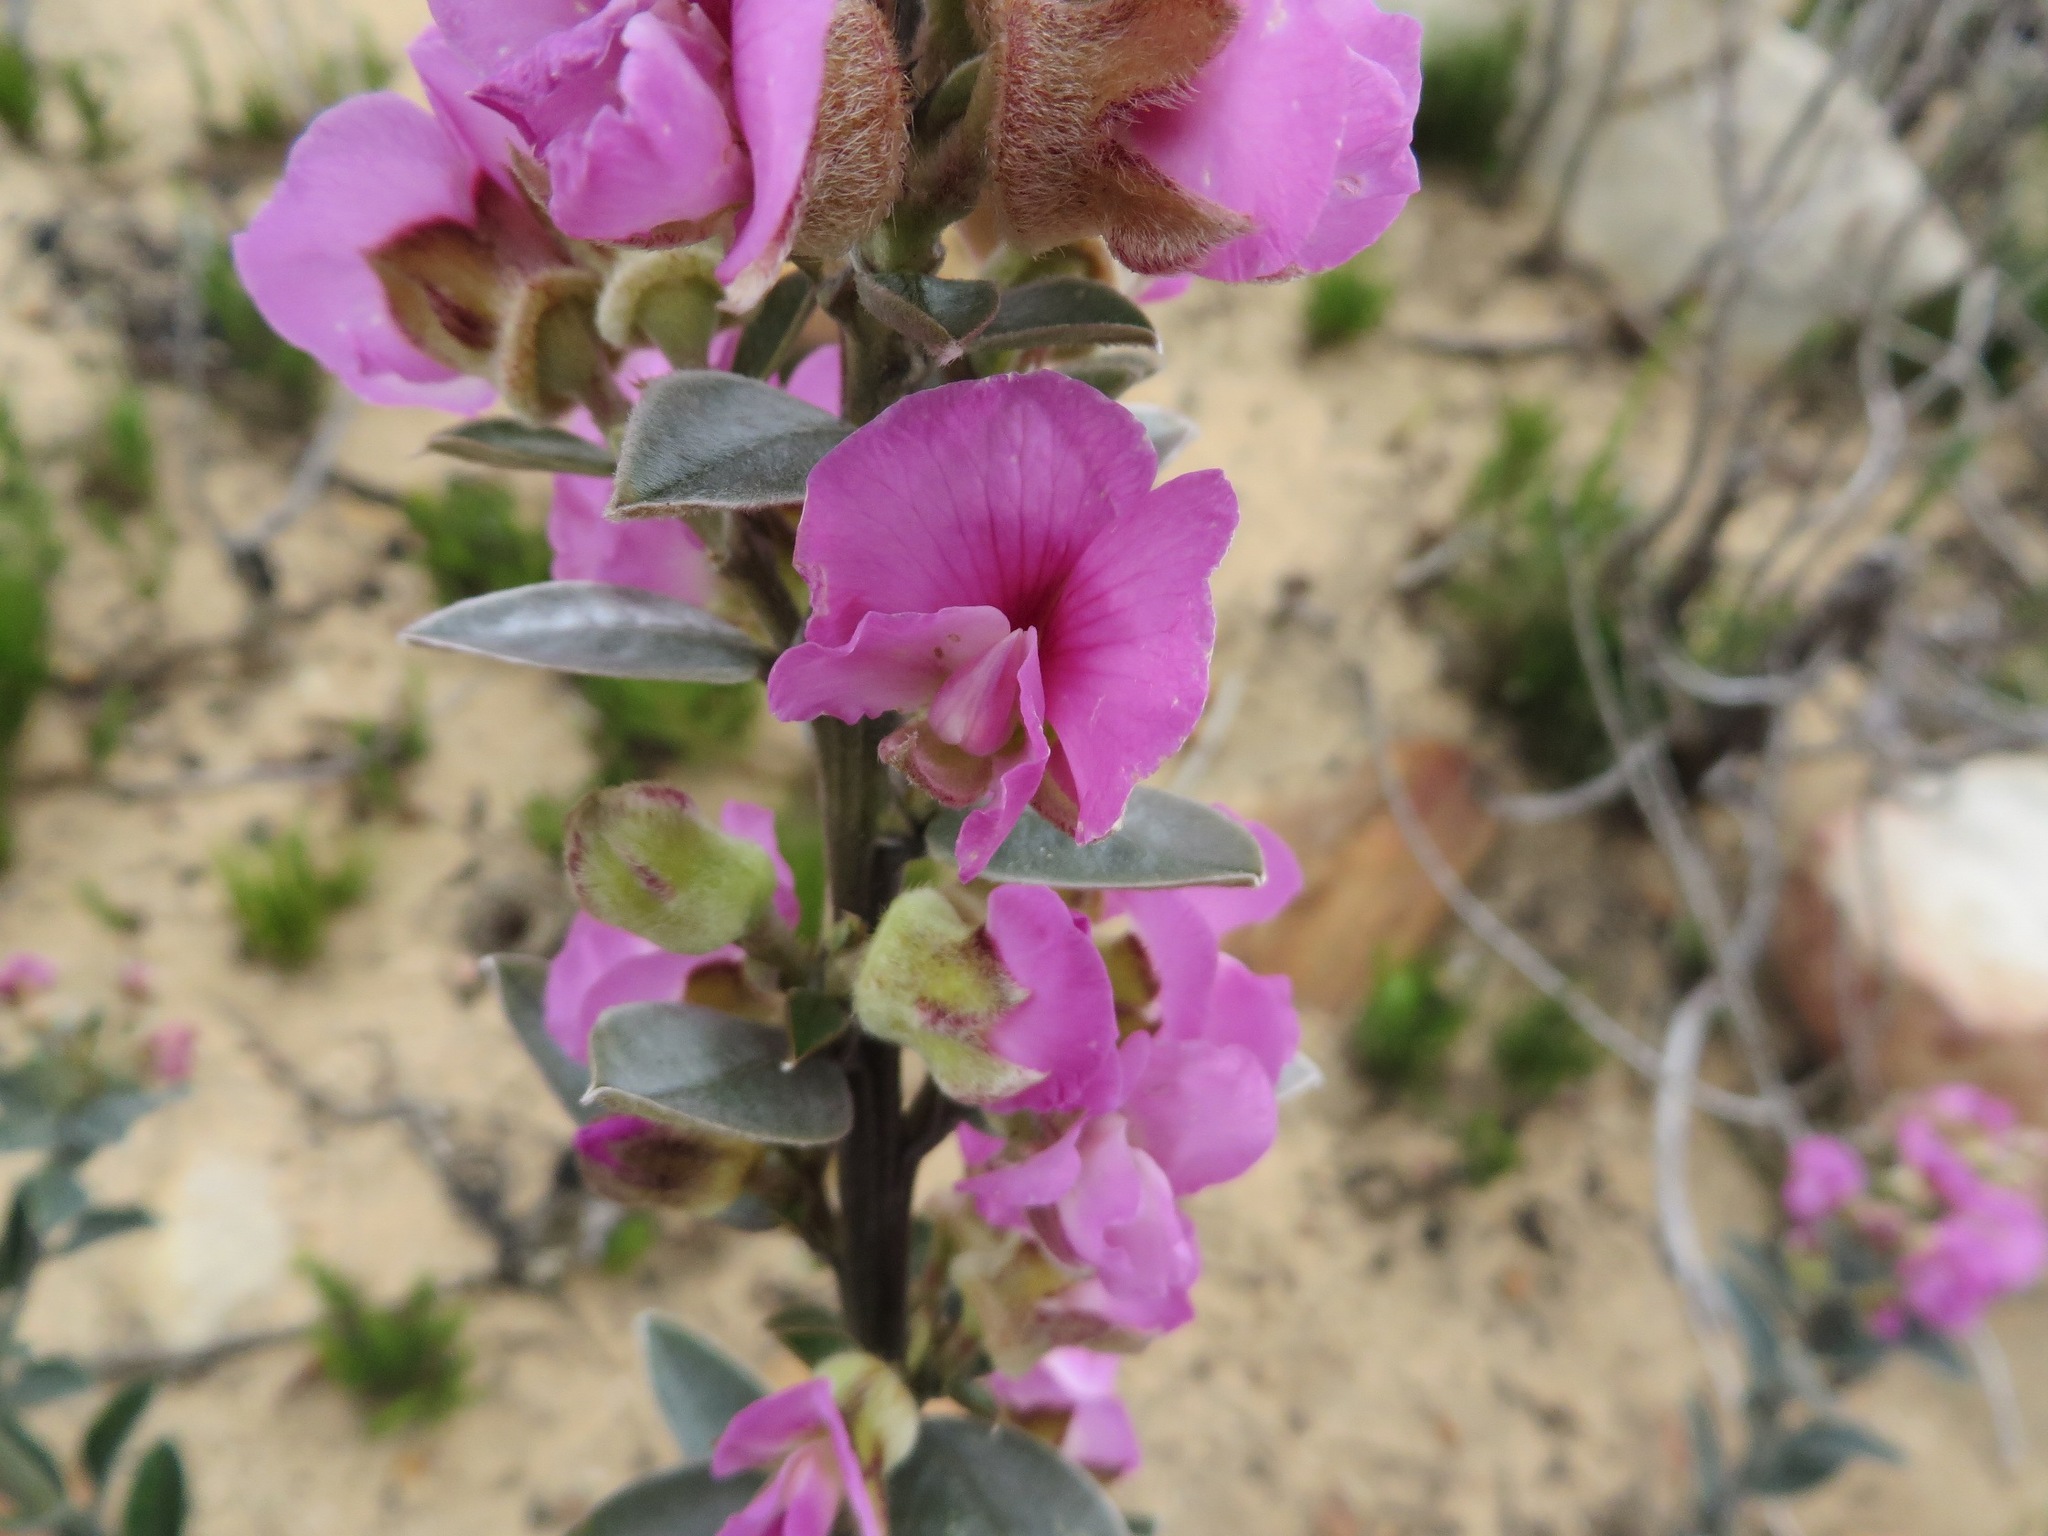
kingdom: Plantae
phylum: Tracheophyta
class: Magnoliopsida
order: Fabales
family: Fabaceae
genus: Podalyria
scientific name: Podalyria variabilis
